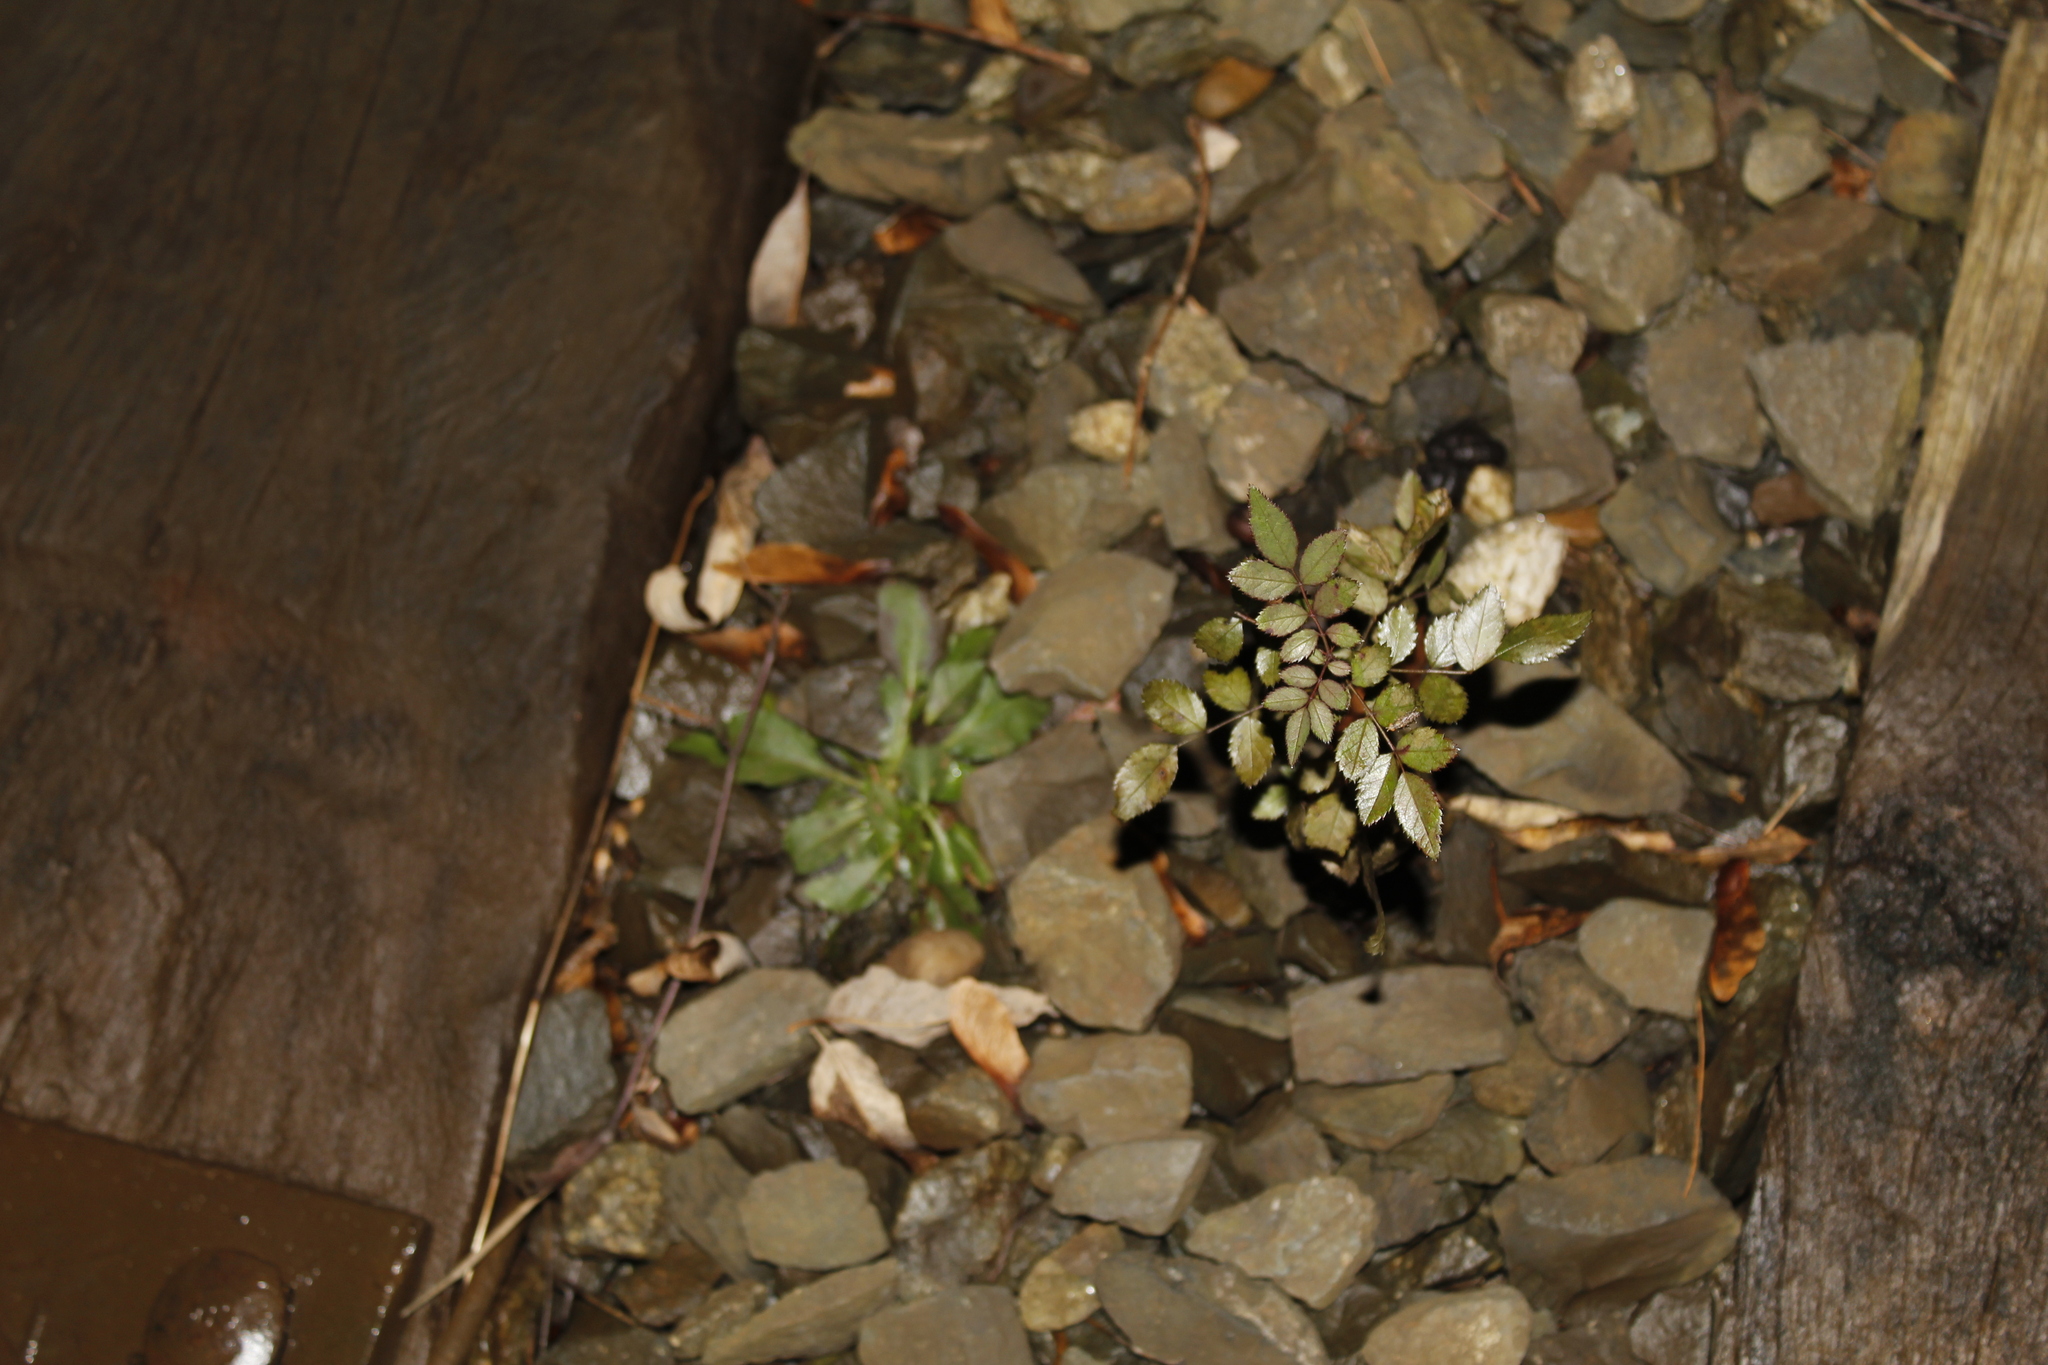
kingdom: Plantae
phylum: Tracheophyta
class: Magnoliopsida
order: Rosales
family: Rosaceae
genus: Rosa
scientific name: Rosa multiflora
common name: Multiflora rose
